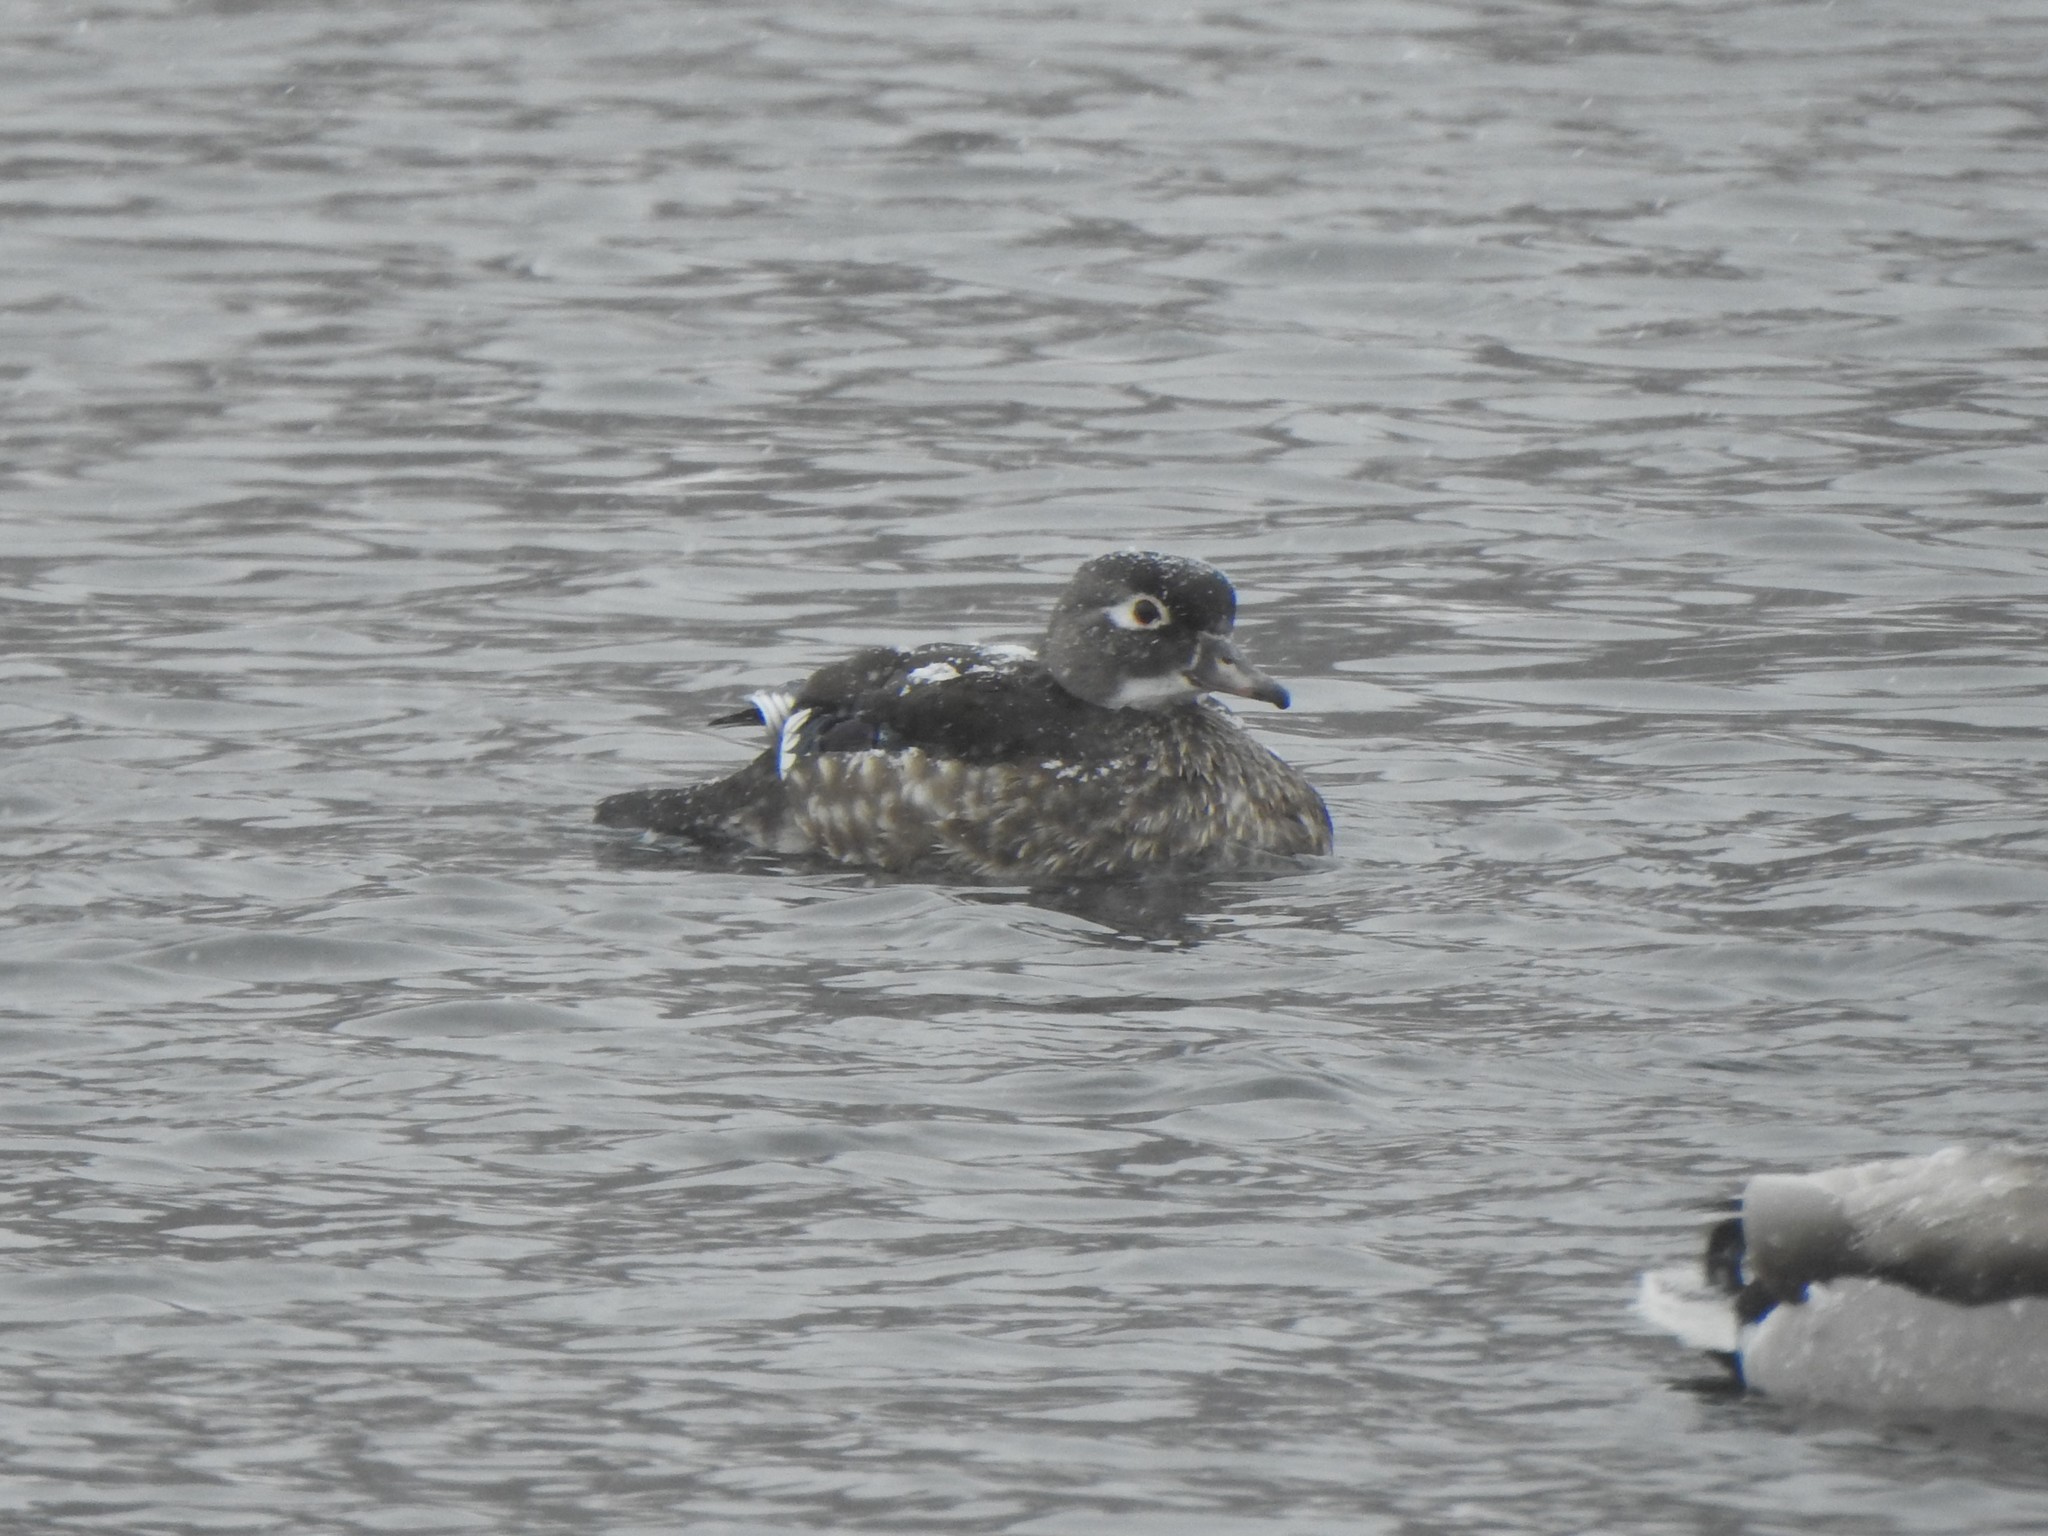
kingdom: Animalia
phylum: Chordata
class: Aves
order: Anseriformes
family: Anatidae
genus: Aix
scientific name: Aix sponsa
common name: Wood duck
